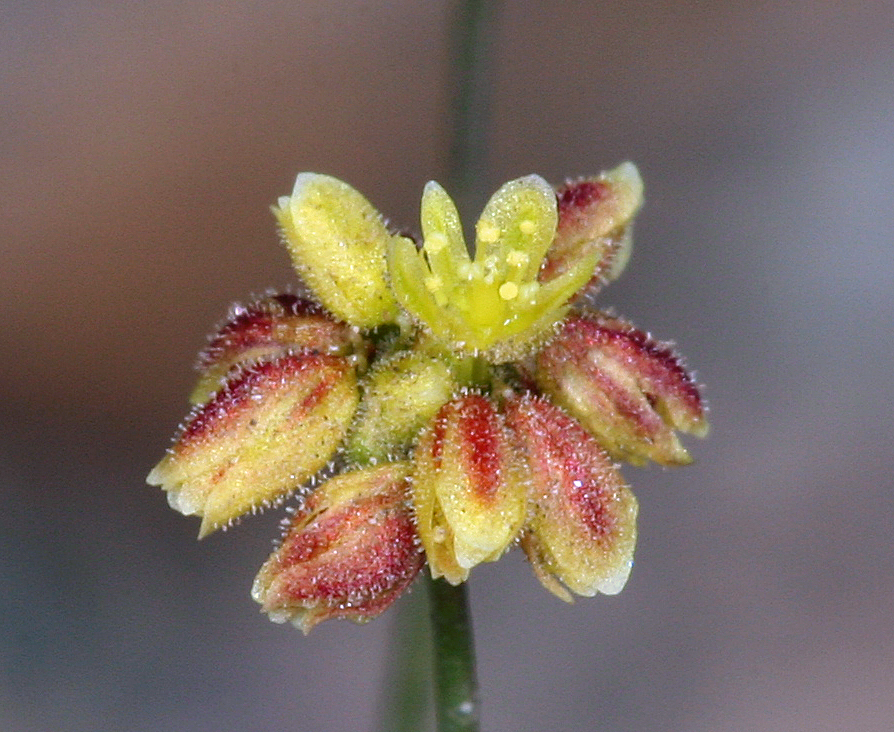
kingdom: Plantae
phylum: Tracheophyta
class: Magnoliopsida
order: Caryophyllales
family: Polygonaceae
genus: Eriogonum
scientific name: Eriogonum pusillum
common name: Yellow turbans
